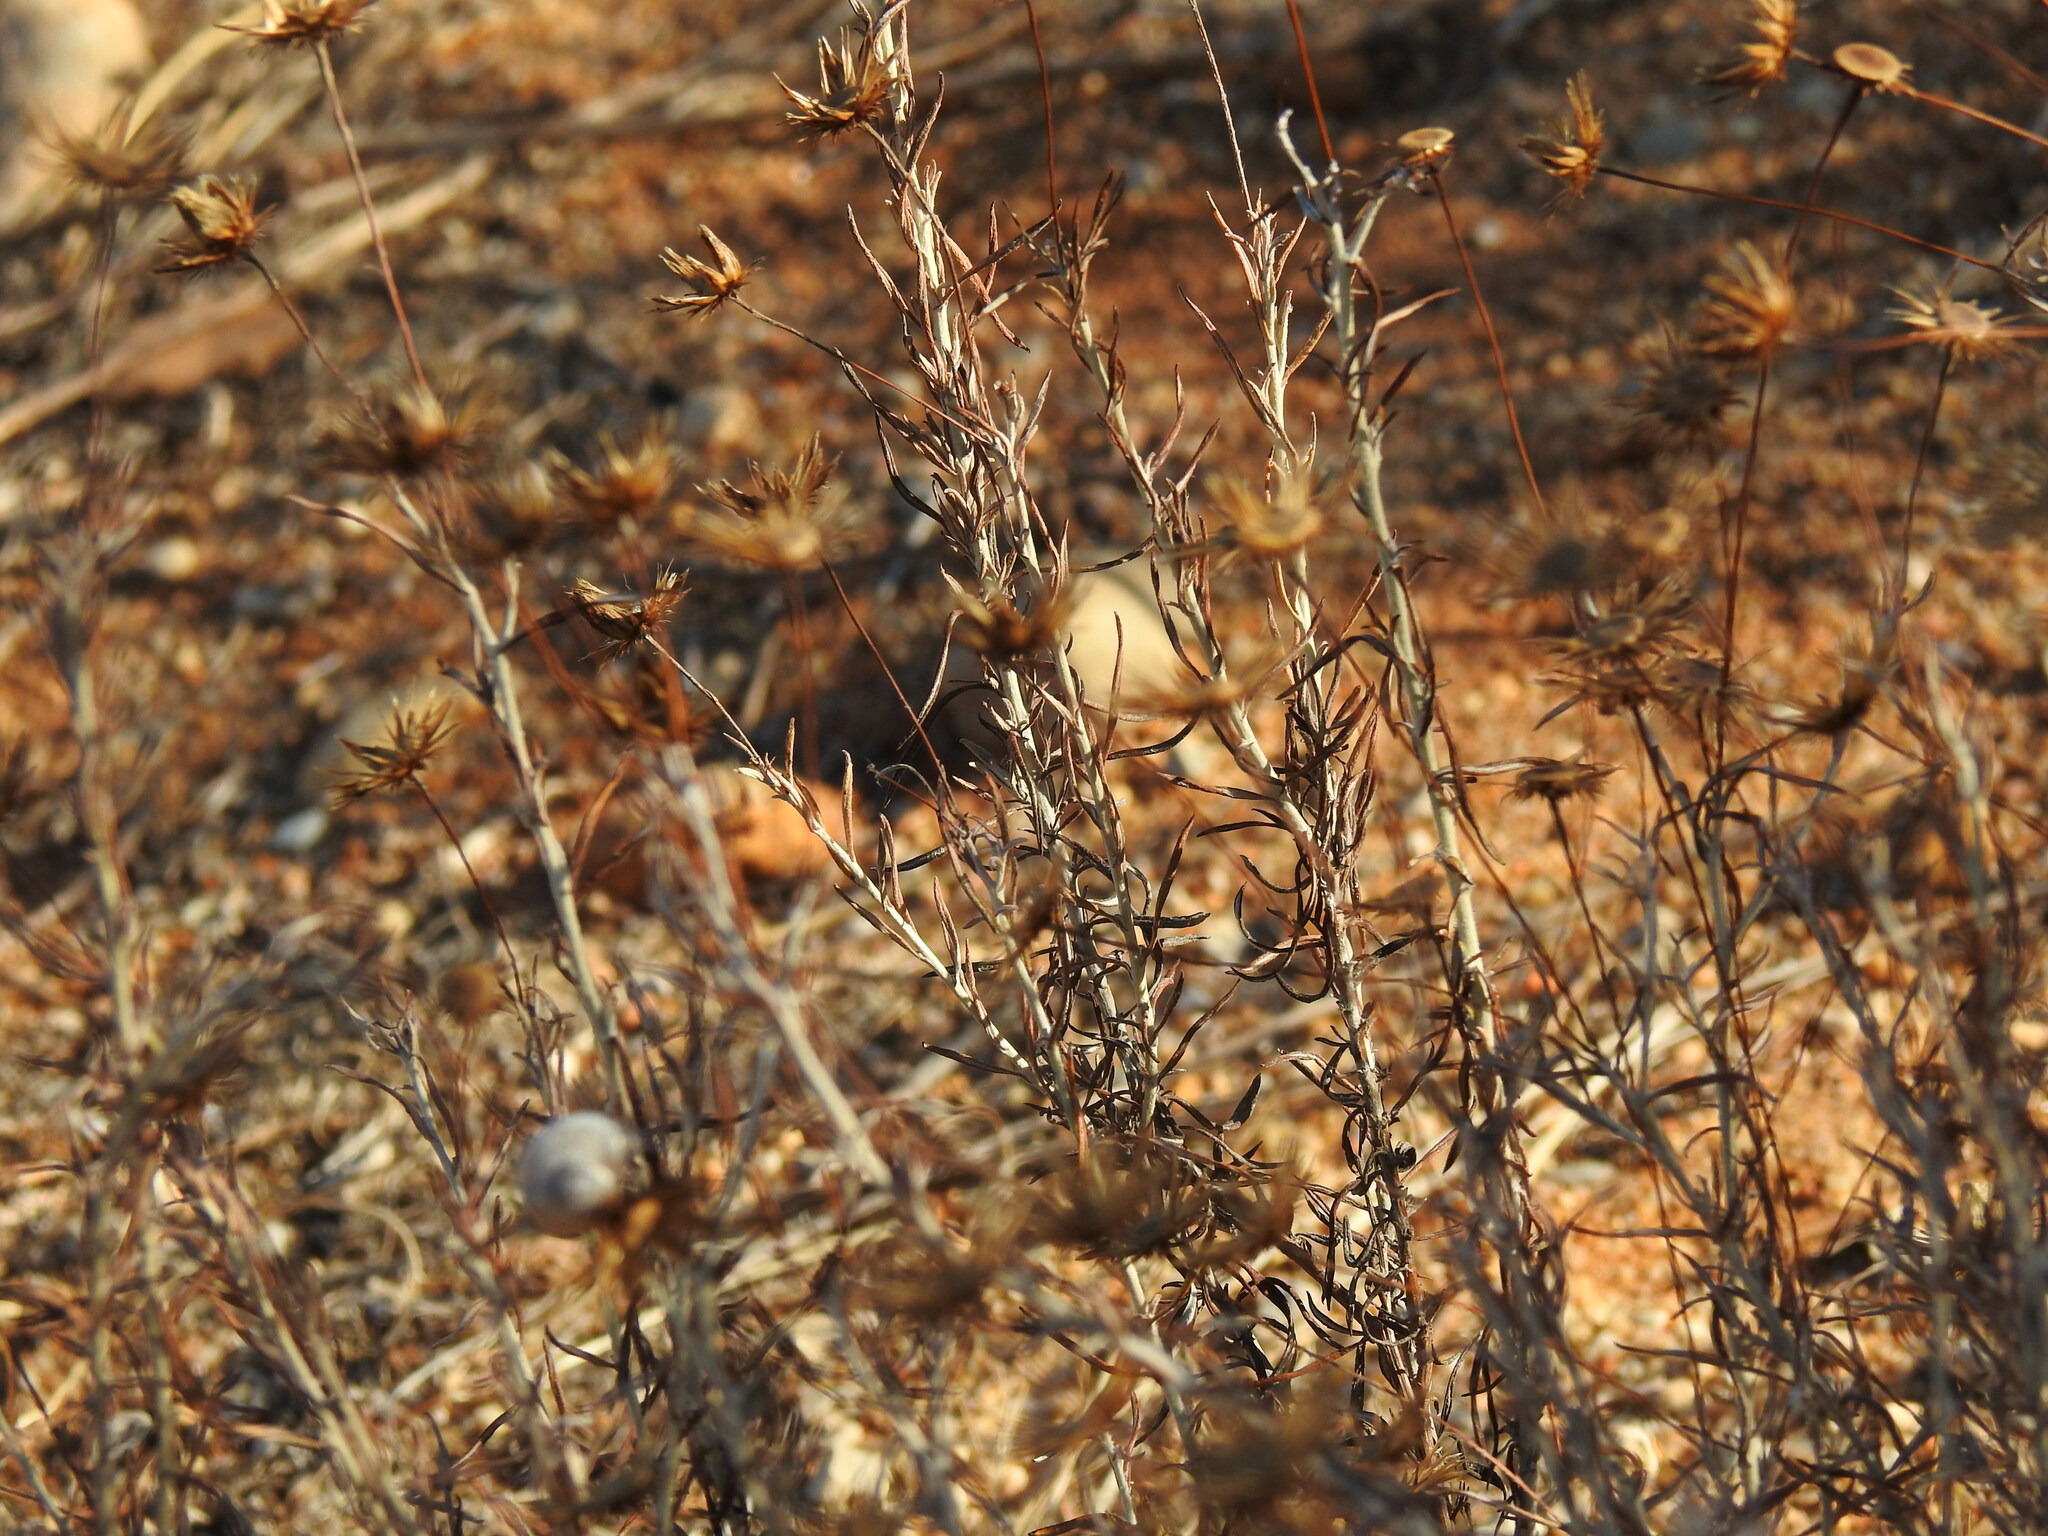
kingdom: Plantae
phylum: Tracheophyta
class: Magnoliopsida
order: Asterales
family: Asteraceae
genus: Phagnalon
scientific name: Phagnalon saxatile
